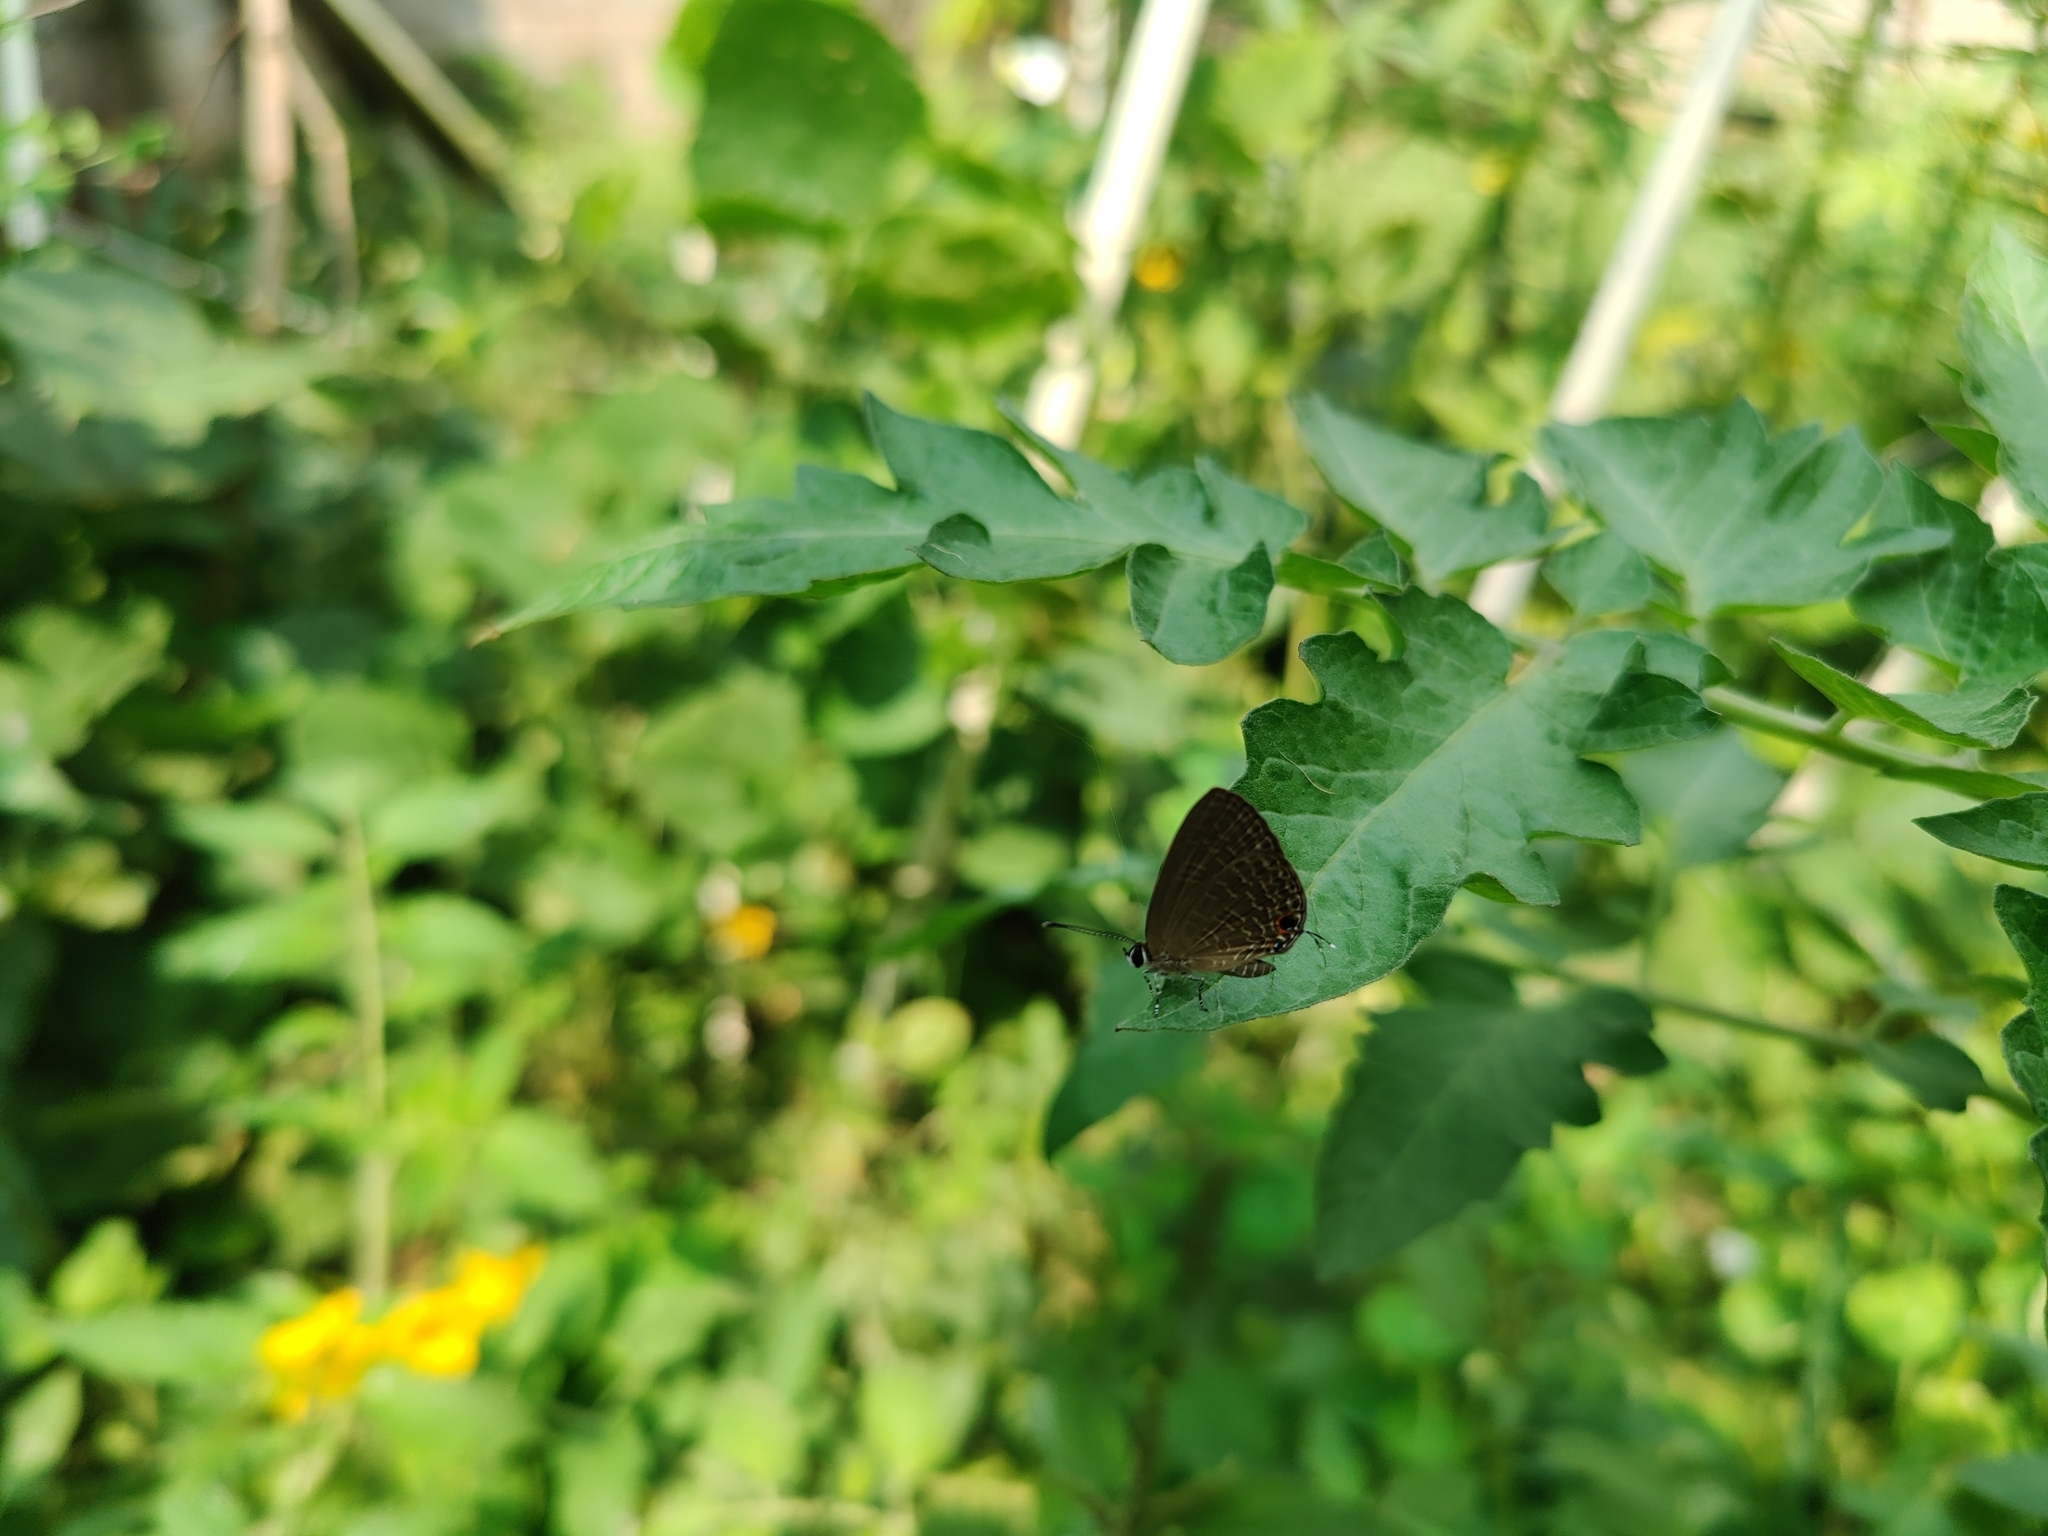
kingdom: Animalia
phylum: Arthropoda
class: Insecta
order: Lepidoptera
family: Lycaenidae
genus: Jamides
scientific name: Jamides bochus
